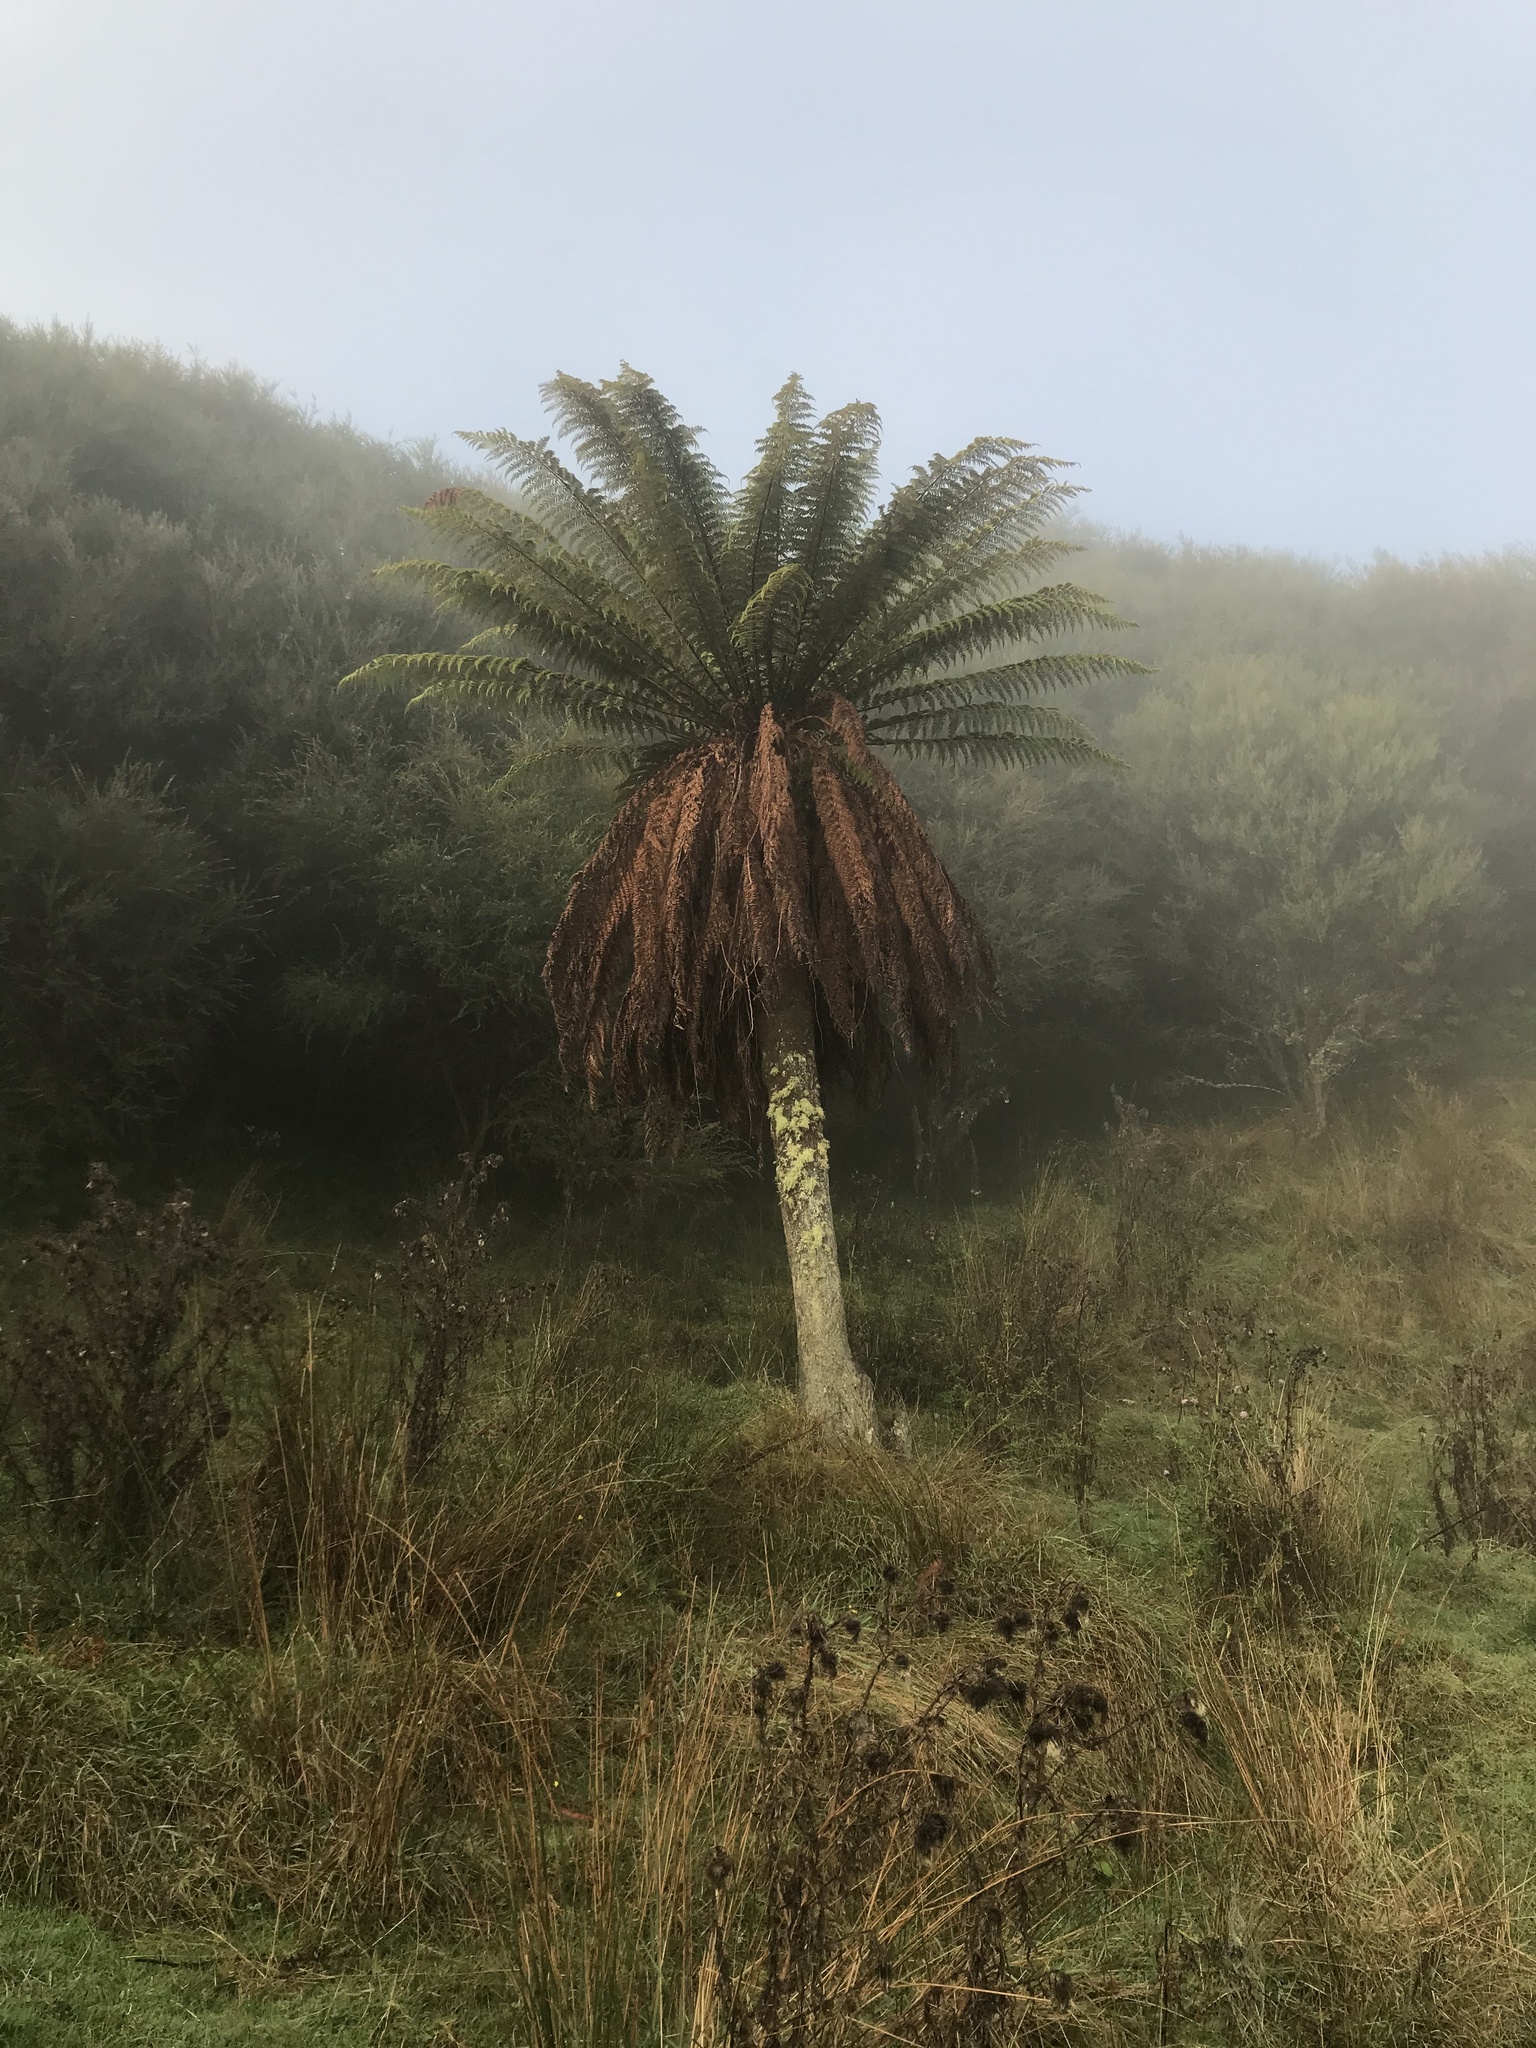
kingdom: Plantae
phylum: Tracheophyta
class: Polypodiopsida
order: Cyatheales
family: Dicksoniaceae
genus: Dicksonia
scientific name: Dicksonia fibrosa
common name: Golden tree fern
